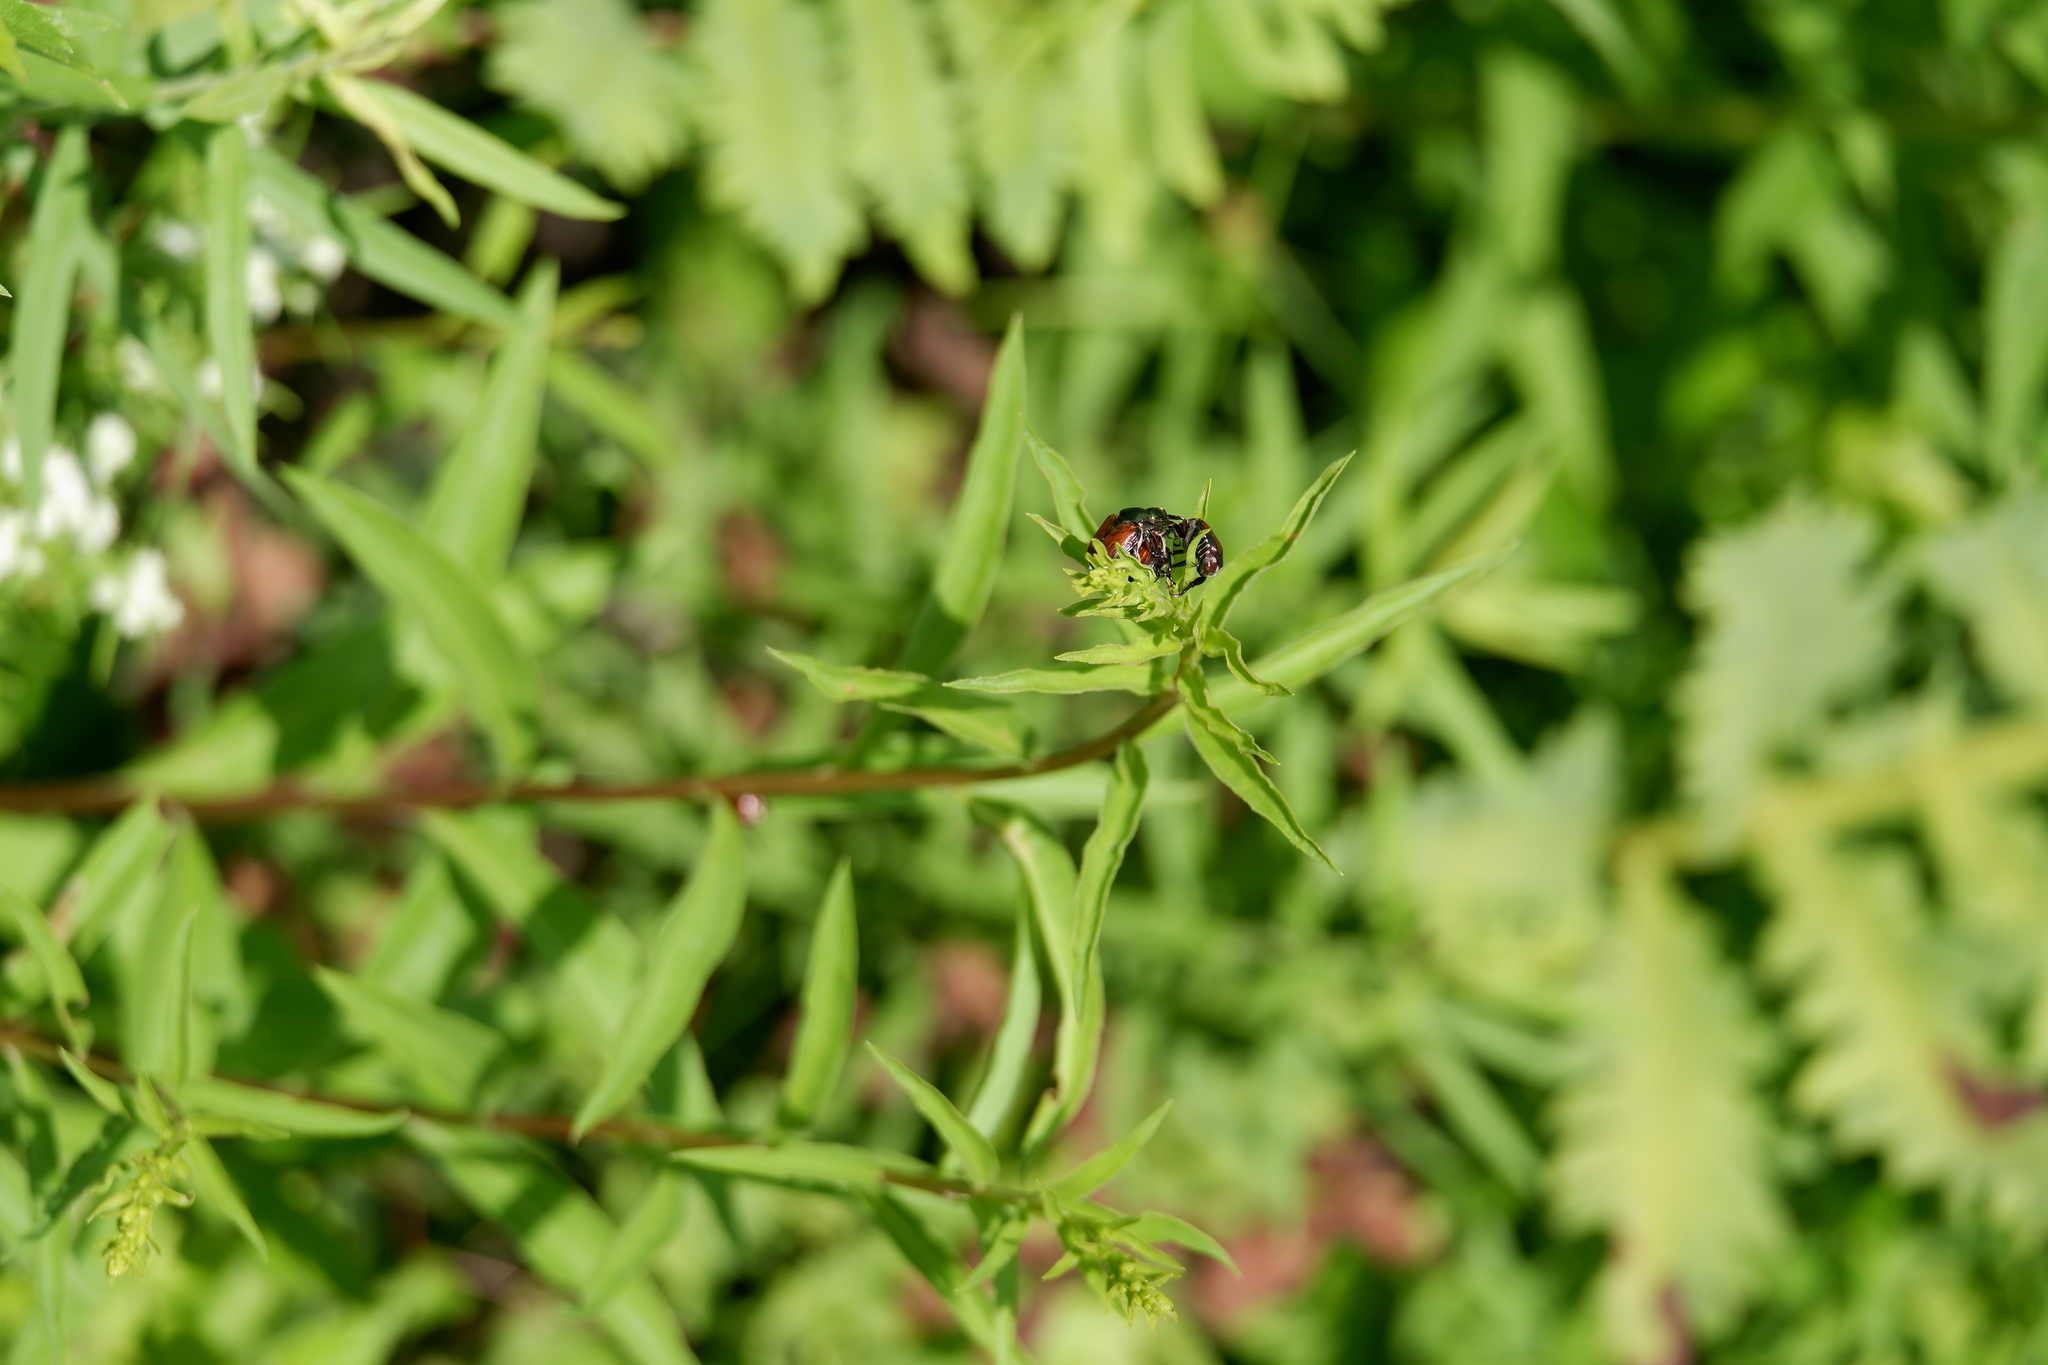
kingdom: Animalia
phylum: Arthropoda
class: Insecta
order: Coleoptera
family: Scarabaeidae
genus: Popillia
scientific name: Popillia japonica
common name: Japanese beetle
